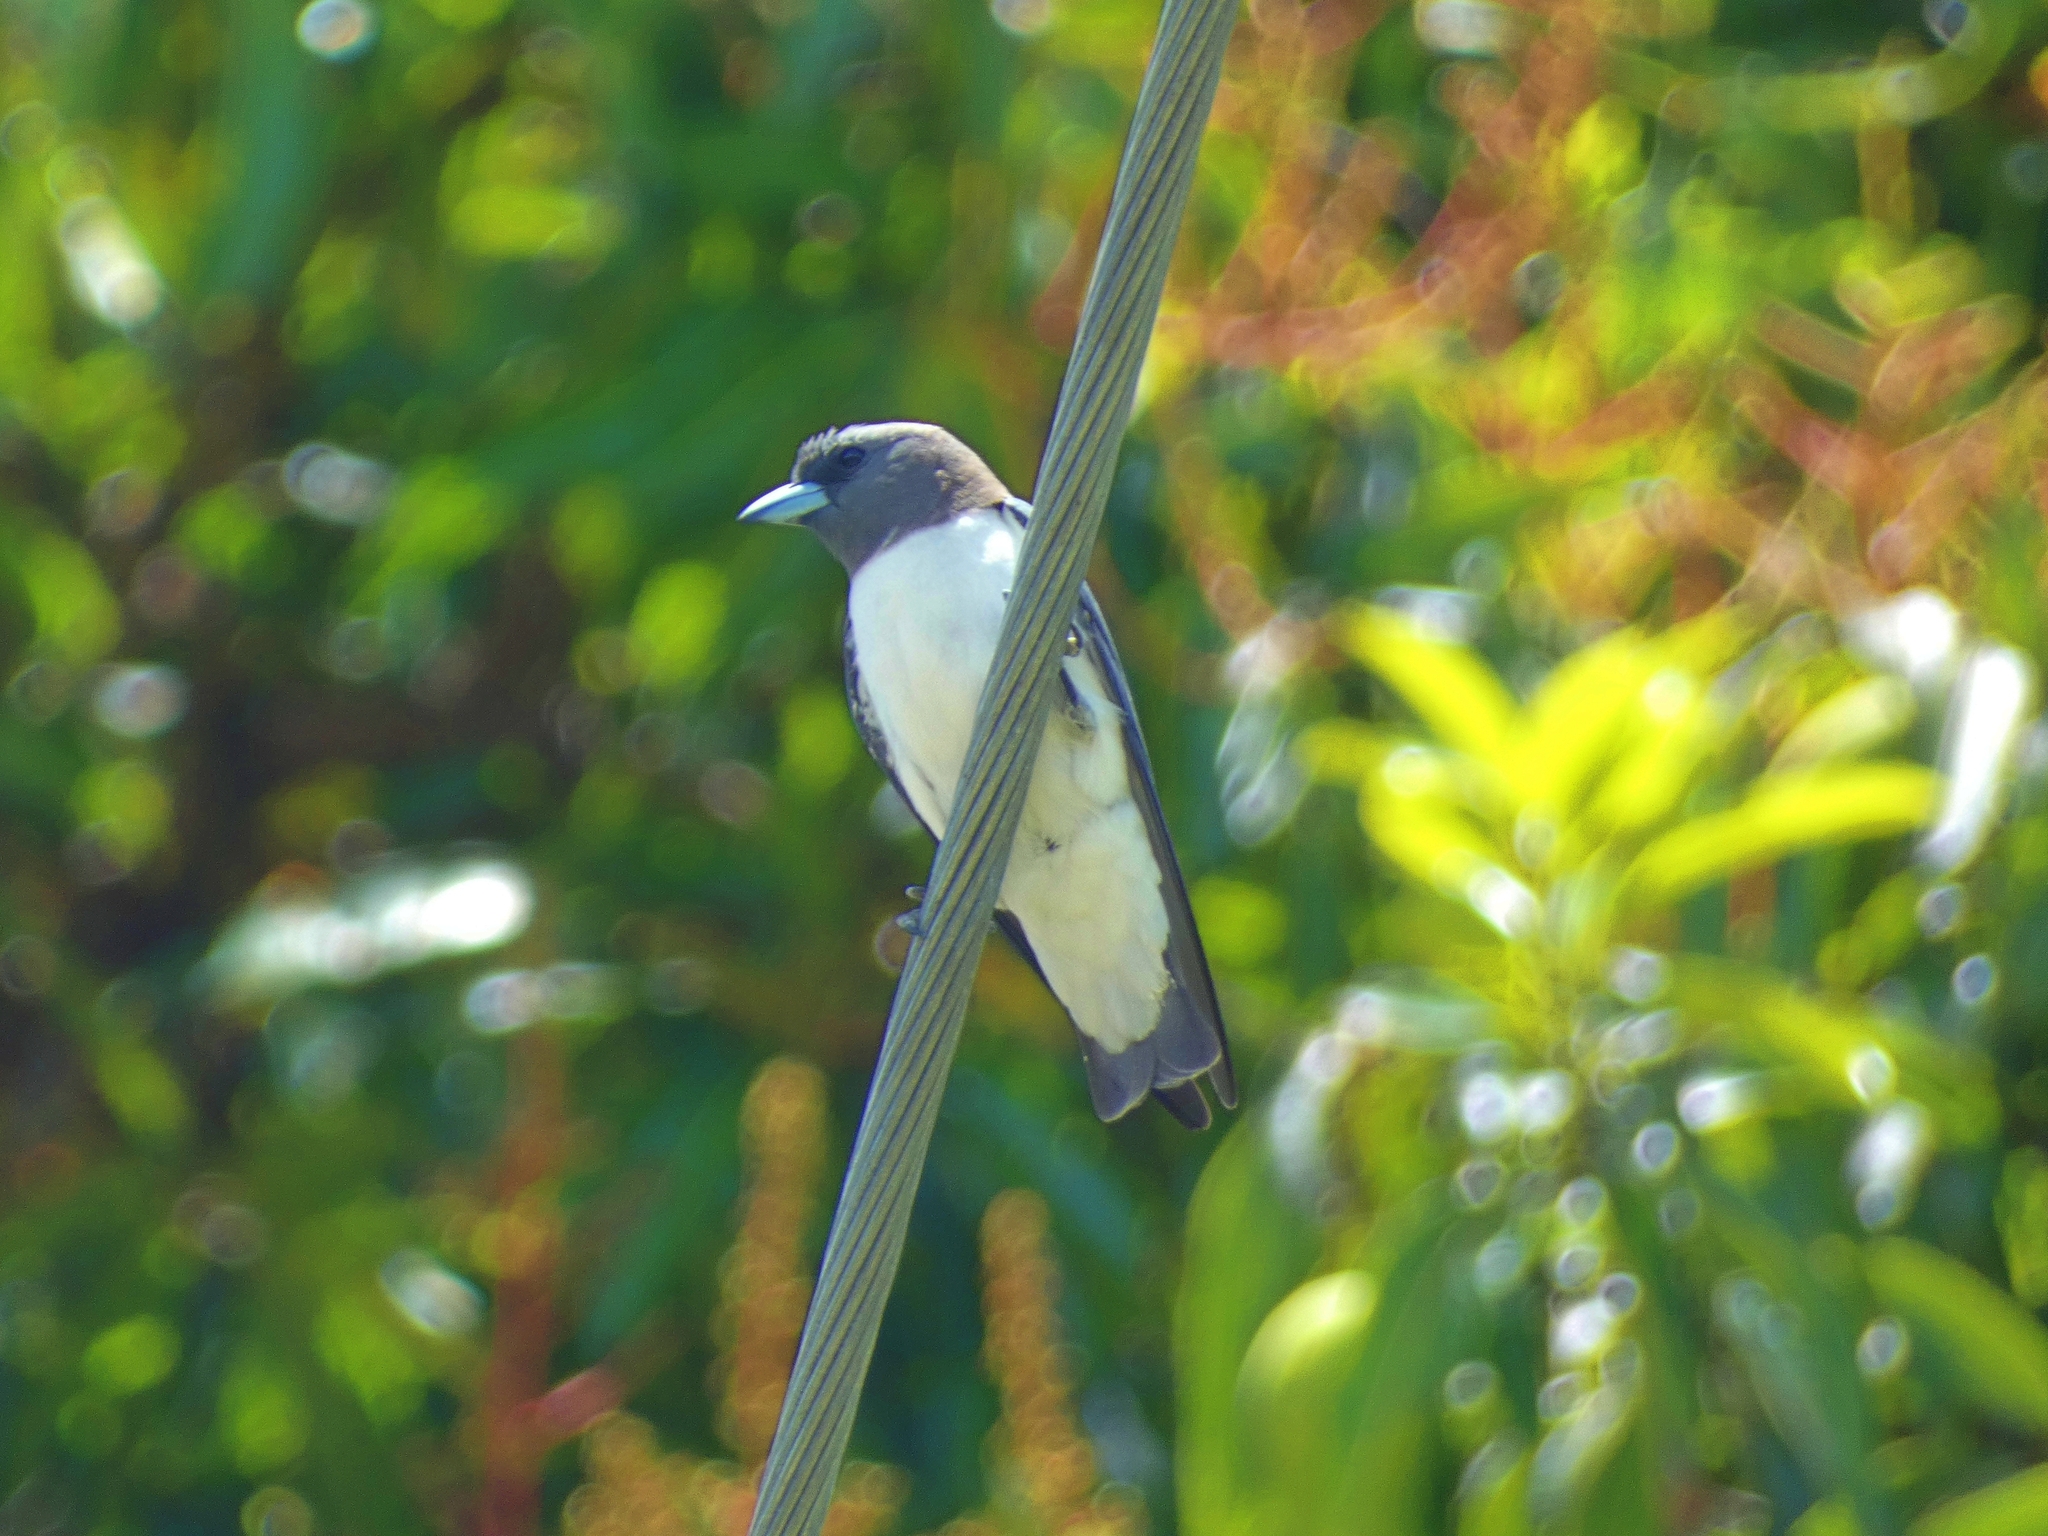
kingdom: Animalia
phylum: Chordata
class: Aves
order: Passeriformes
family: Artamidae
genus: Artamus
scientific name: Artamus leucoryn
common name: White-breasted woodswallow
